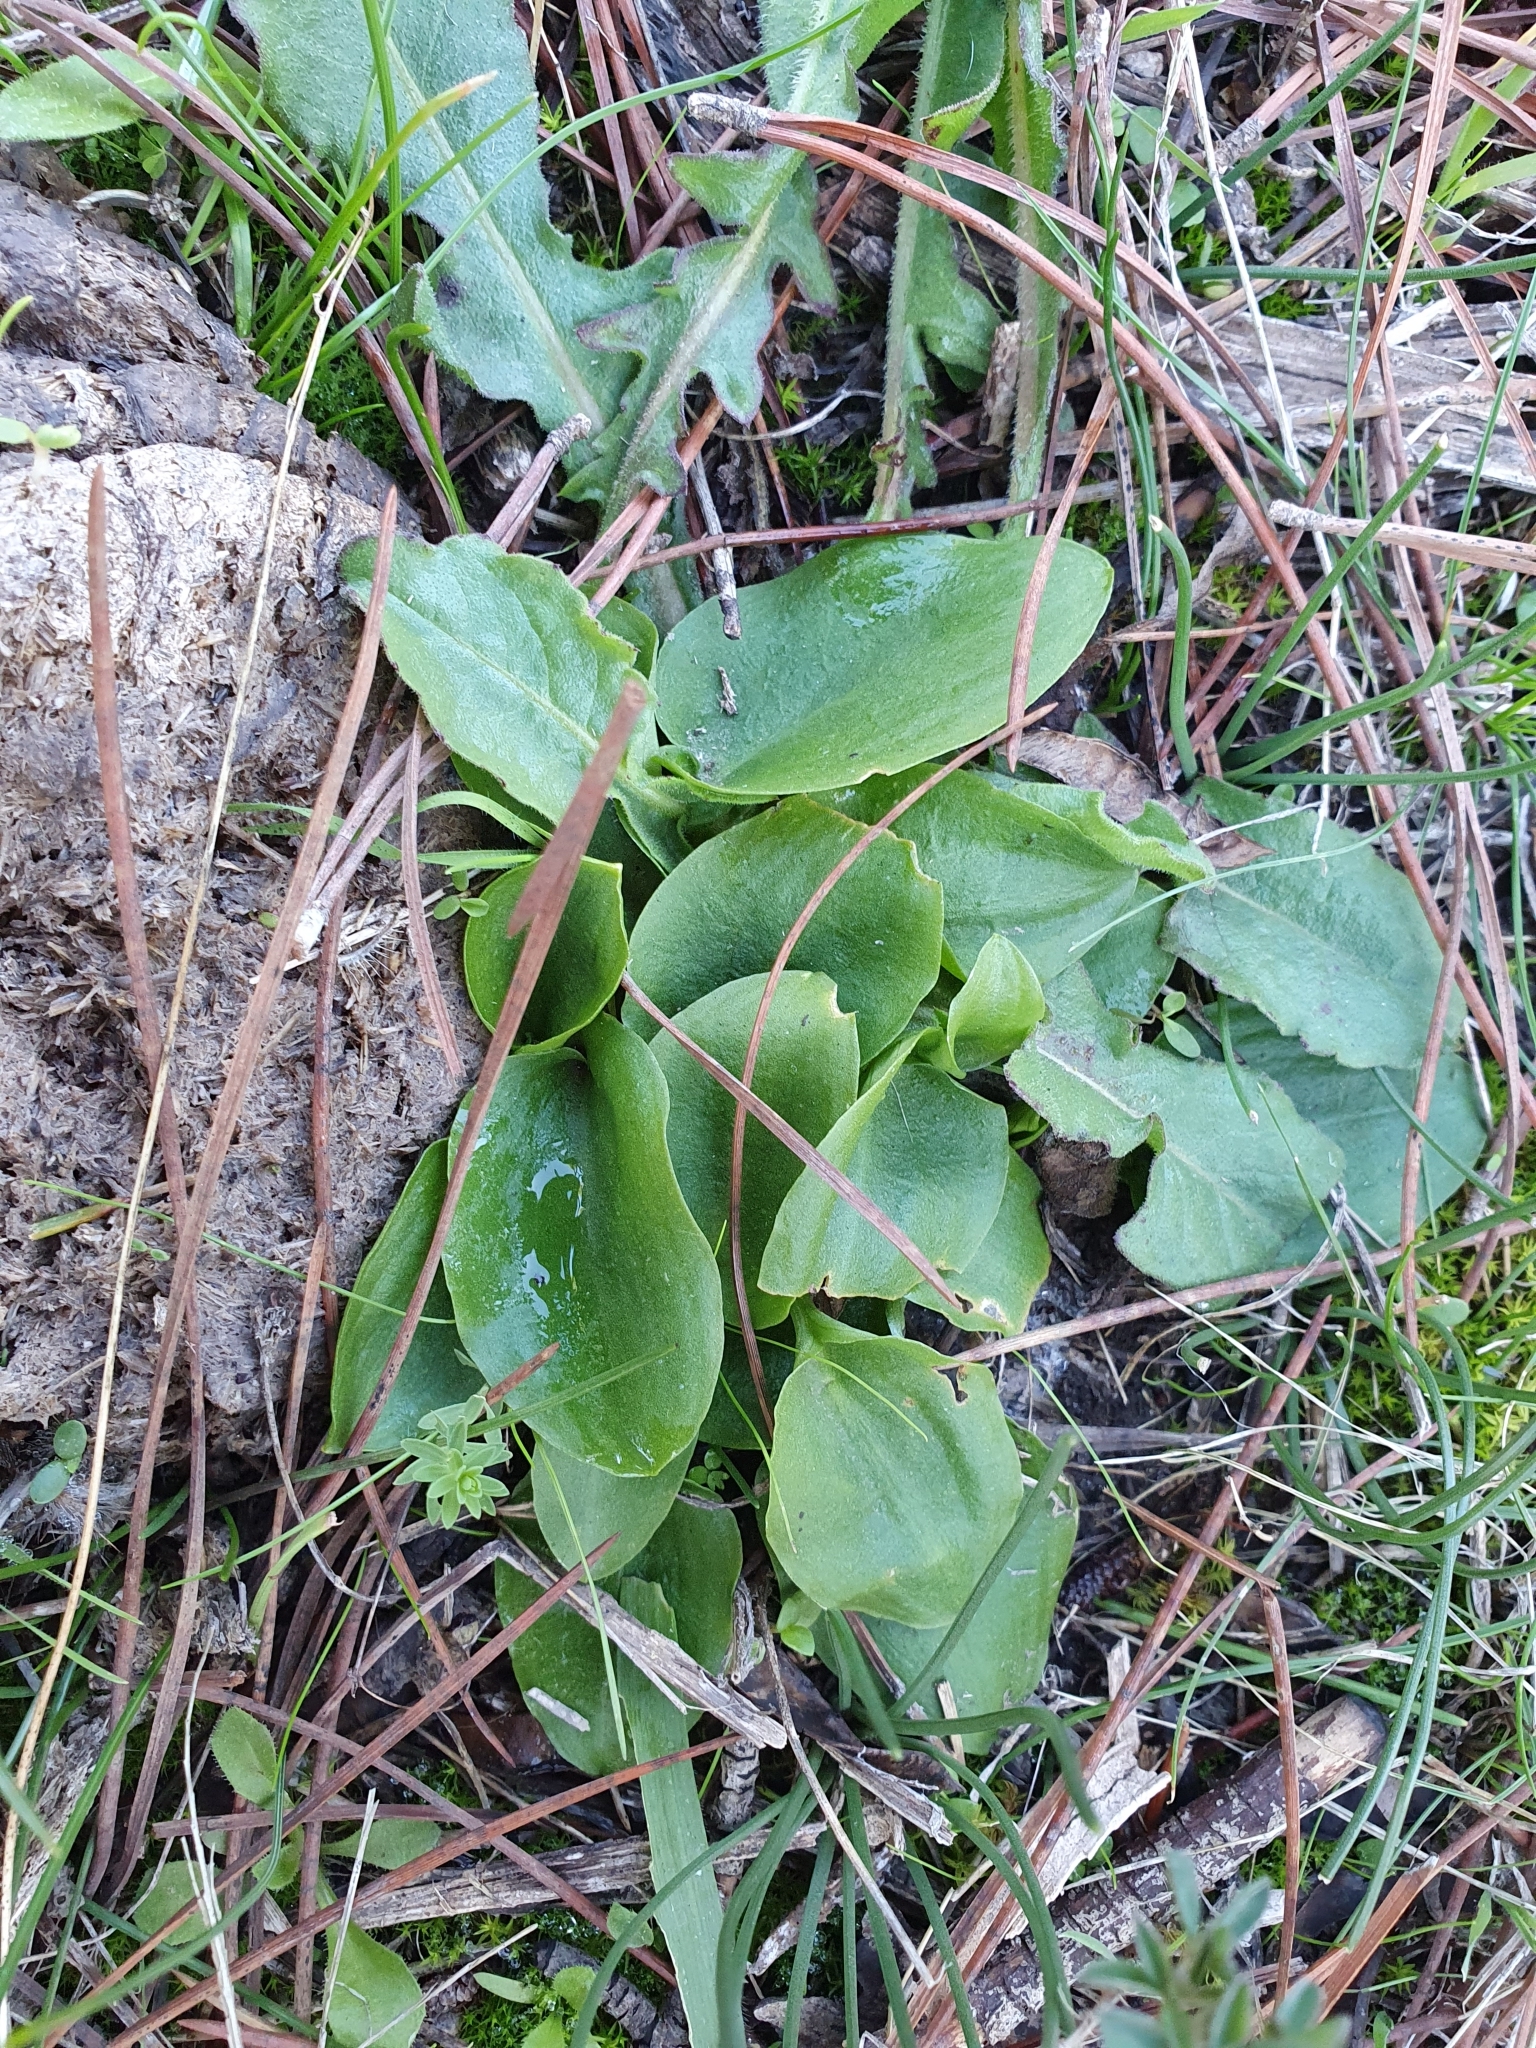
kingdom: Plantae
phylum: Tracheophyta
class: Liliopsida
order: Alismatales
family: Araceae
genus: Ambrosina
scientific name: Ambrosina bassii
